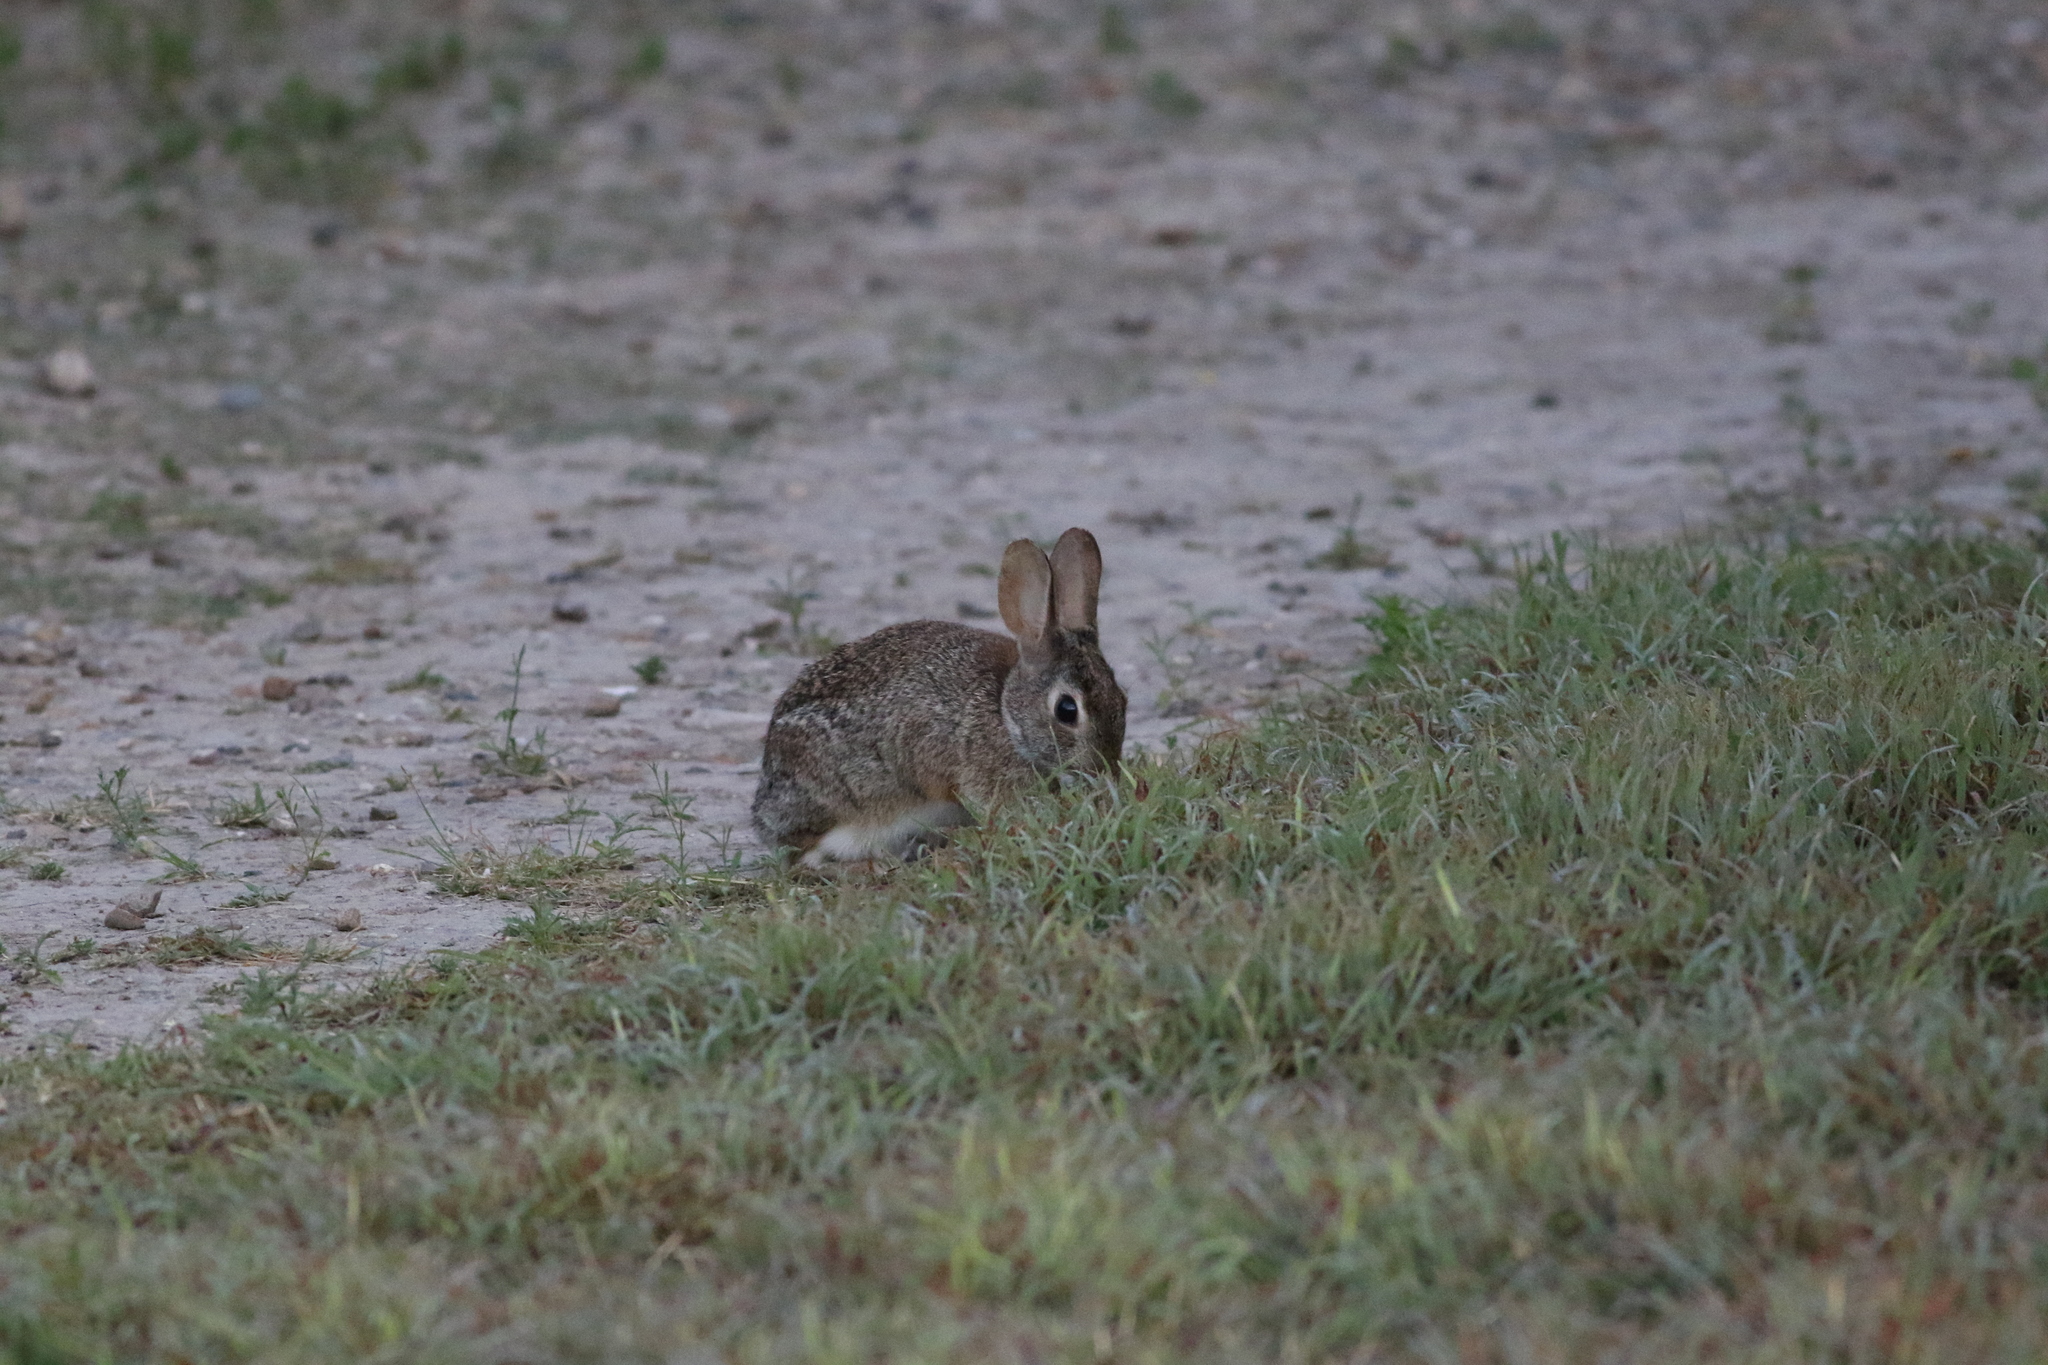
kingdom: Animalia
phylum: Chordata
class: Mammalia
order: Lagomorpha
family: Leporidae
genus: Sylvilagus
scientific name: Sylvilagus floridanus
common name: Eastern cottontail
